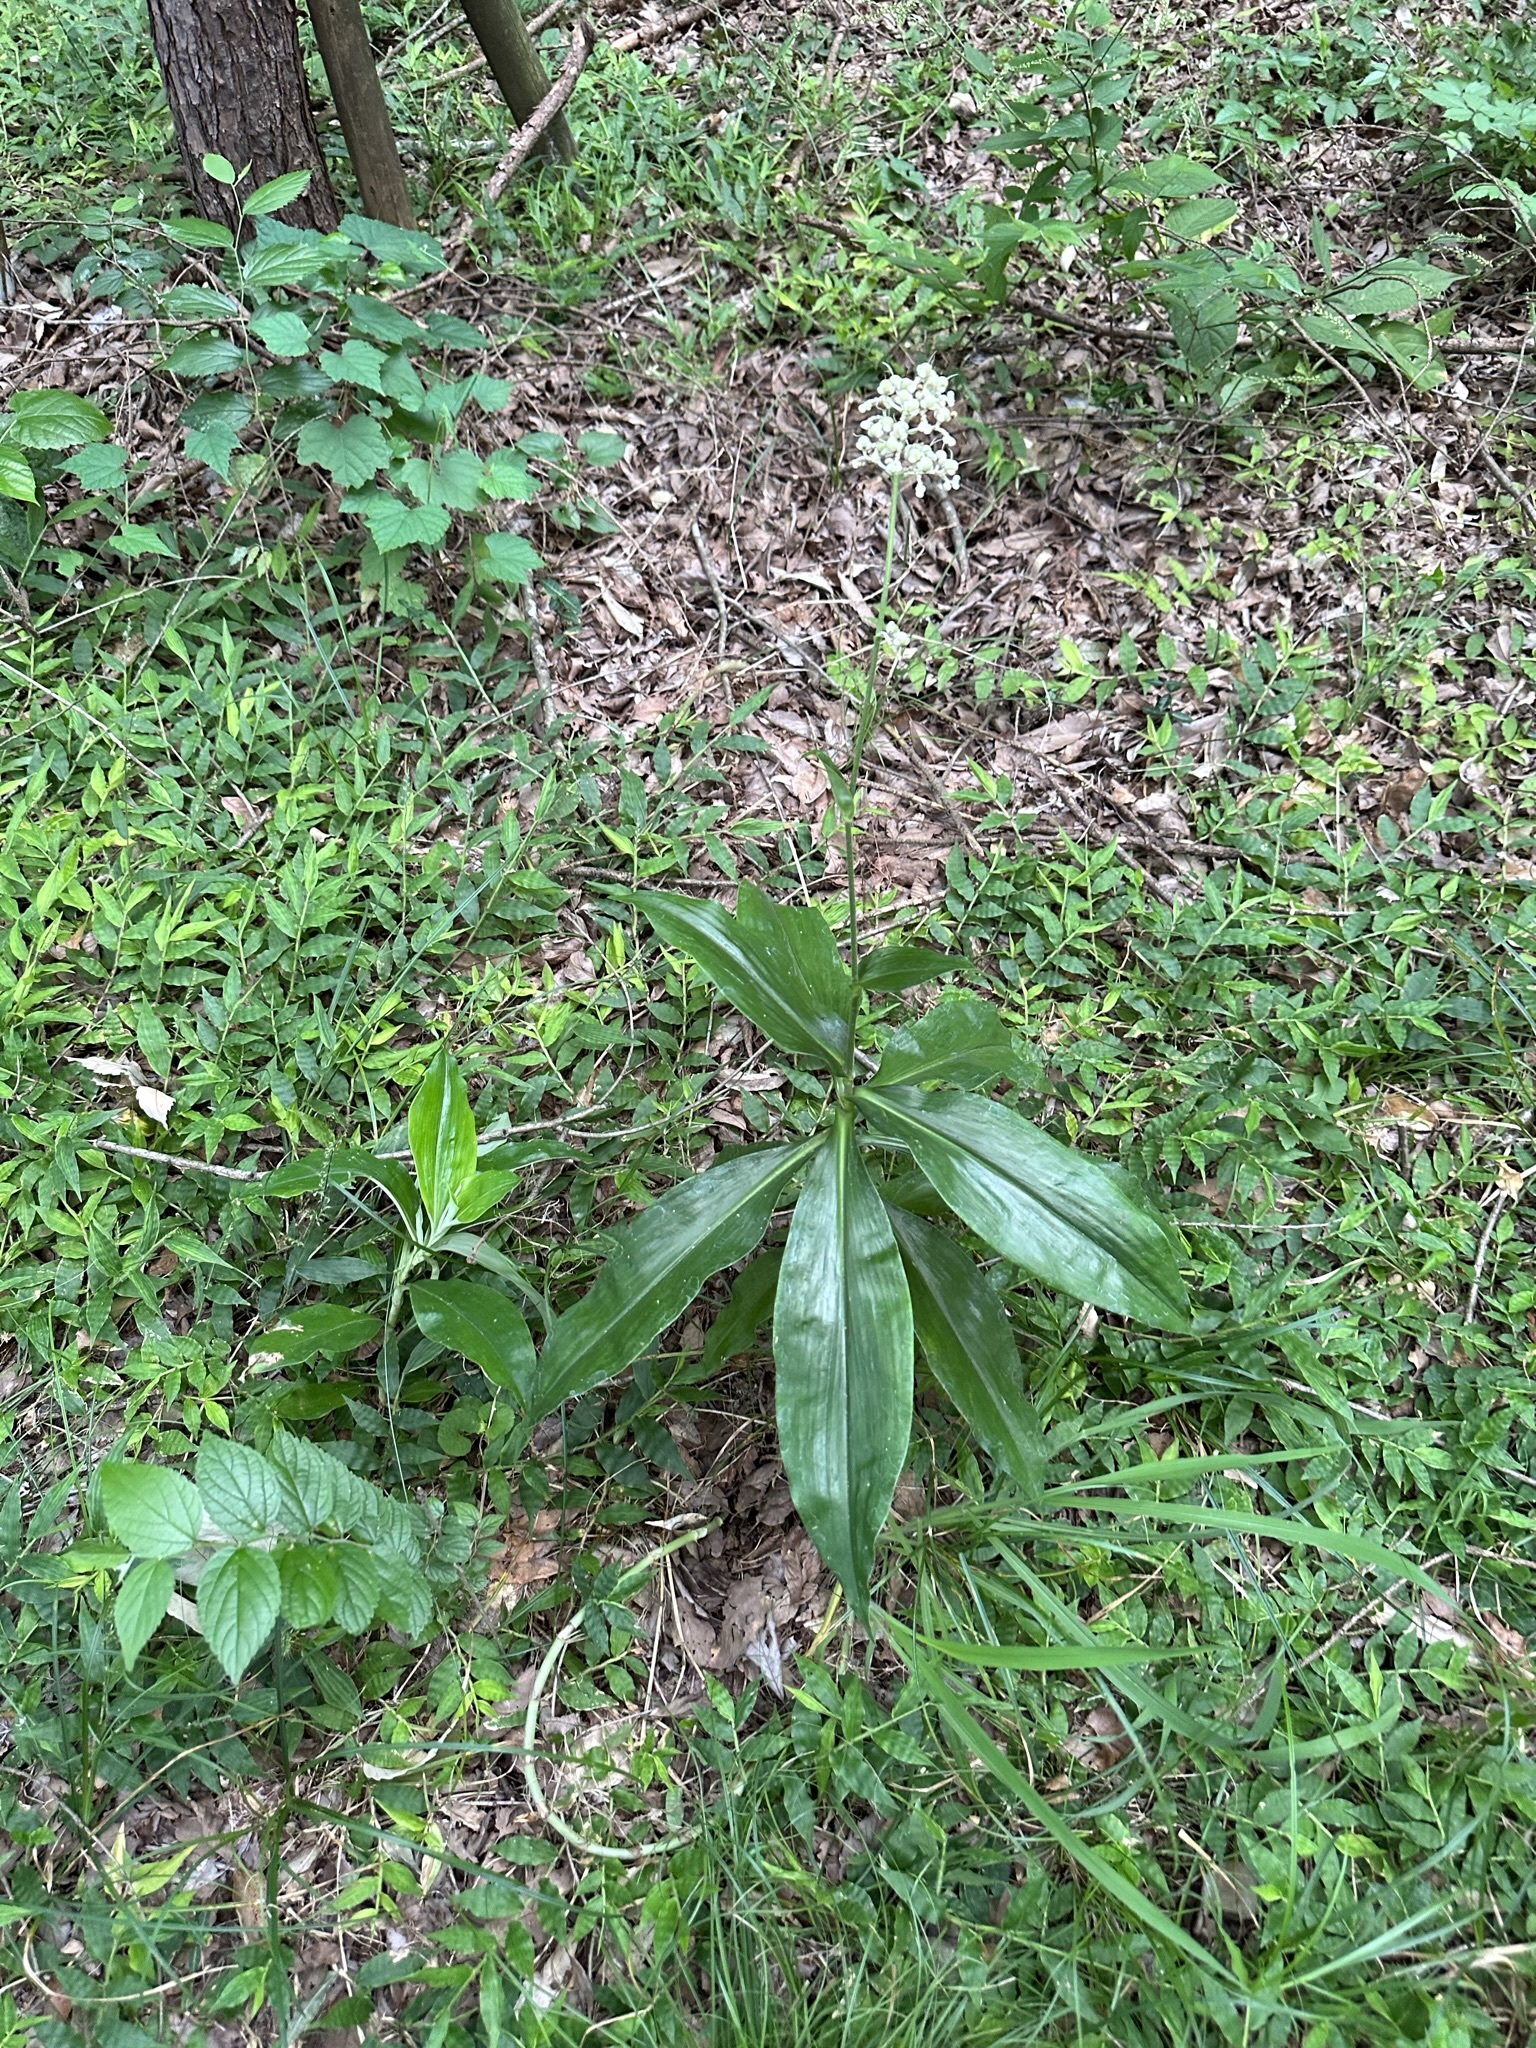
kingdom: Plantae
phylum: Tracheophyta
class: Liliopsida
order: Commelinales
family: Commelinaceae
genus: Pollia
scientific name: Pollia japonica
